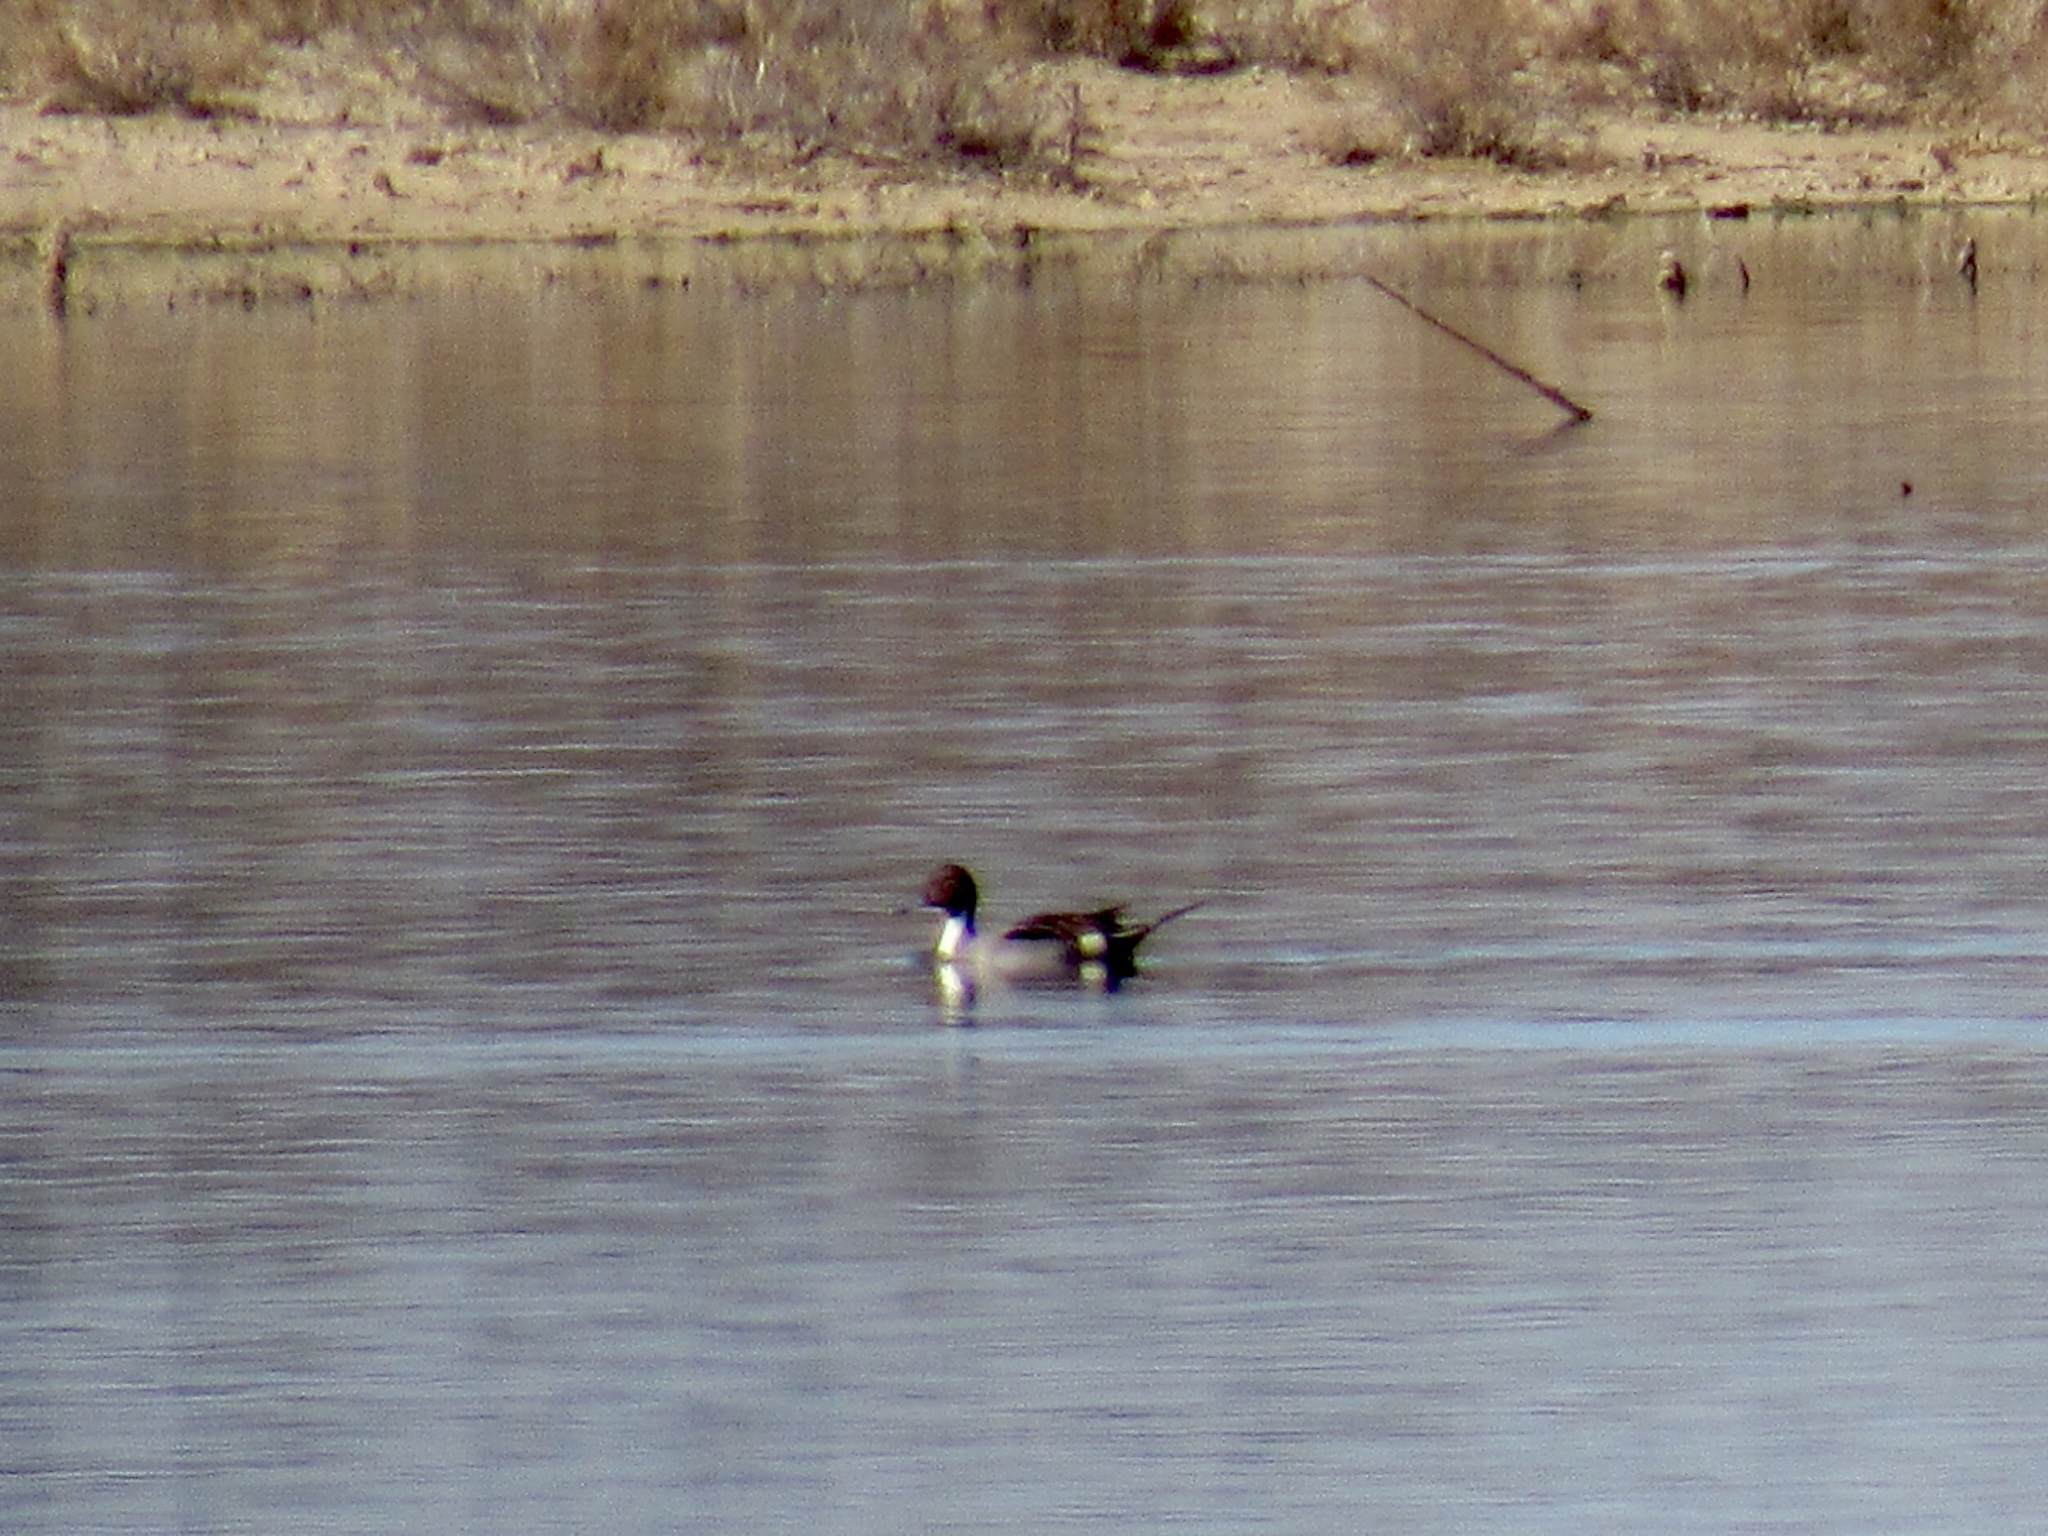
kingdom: Animalia
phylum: Chordata
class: Aves
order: Anseriformes
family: Anatidae
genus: Anas
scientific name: Anas acuta
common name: Northern pintail
